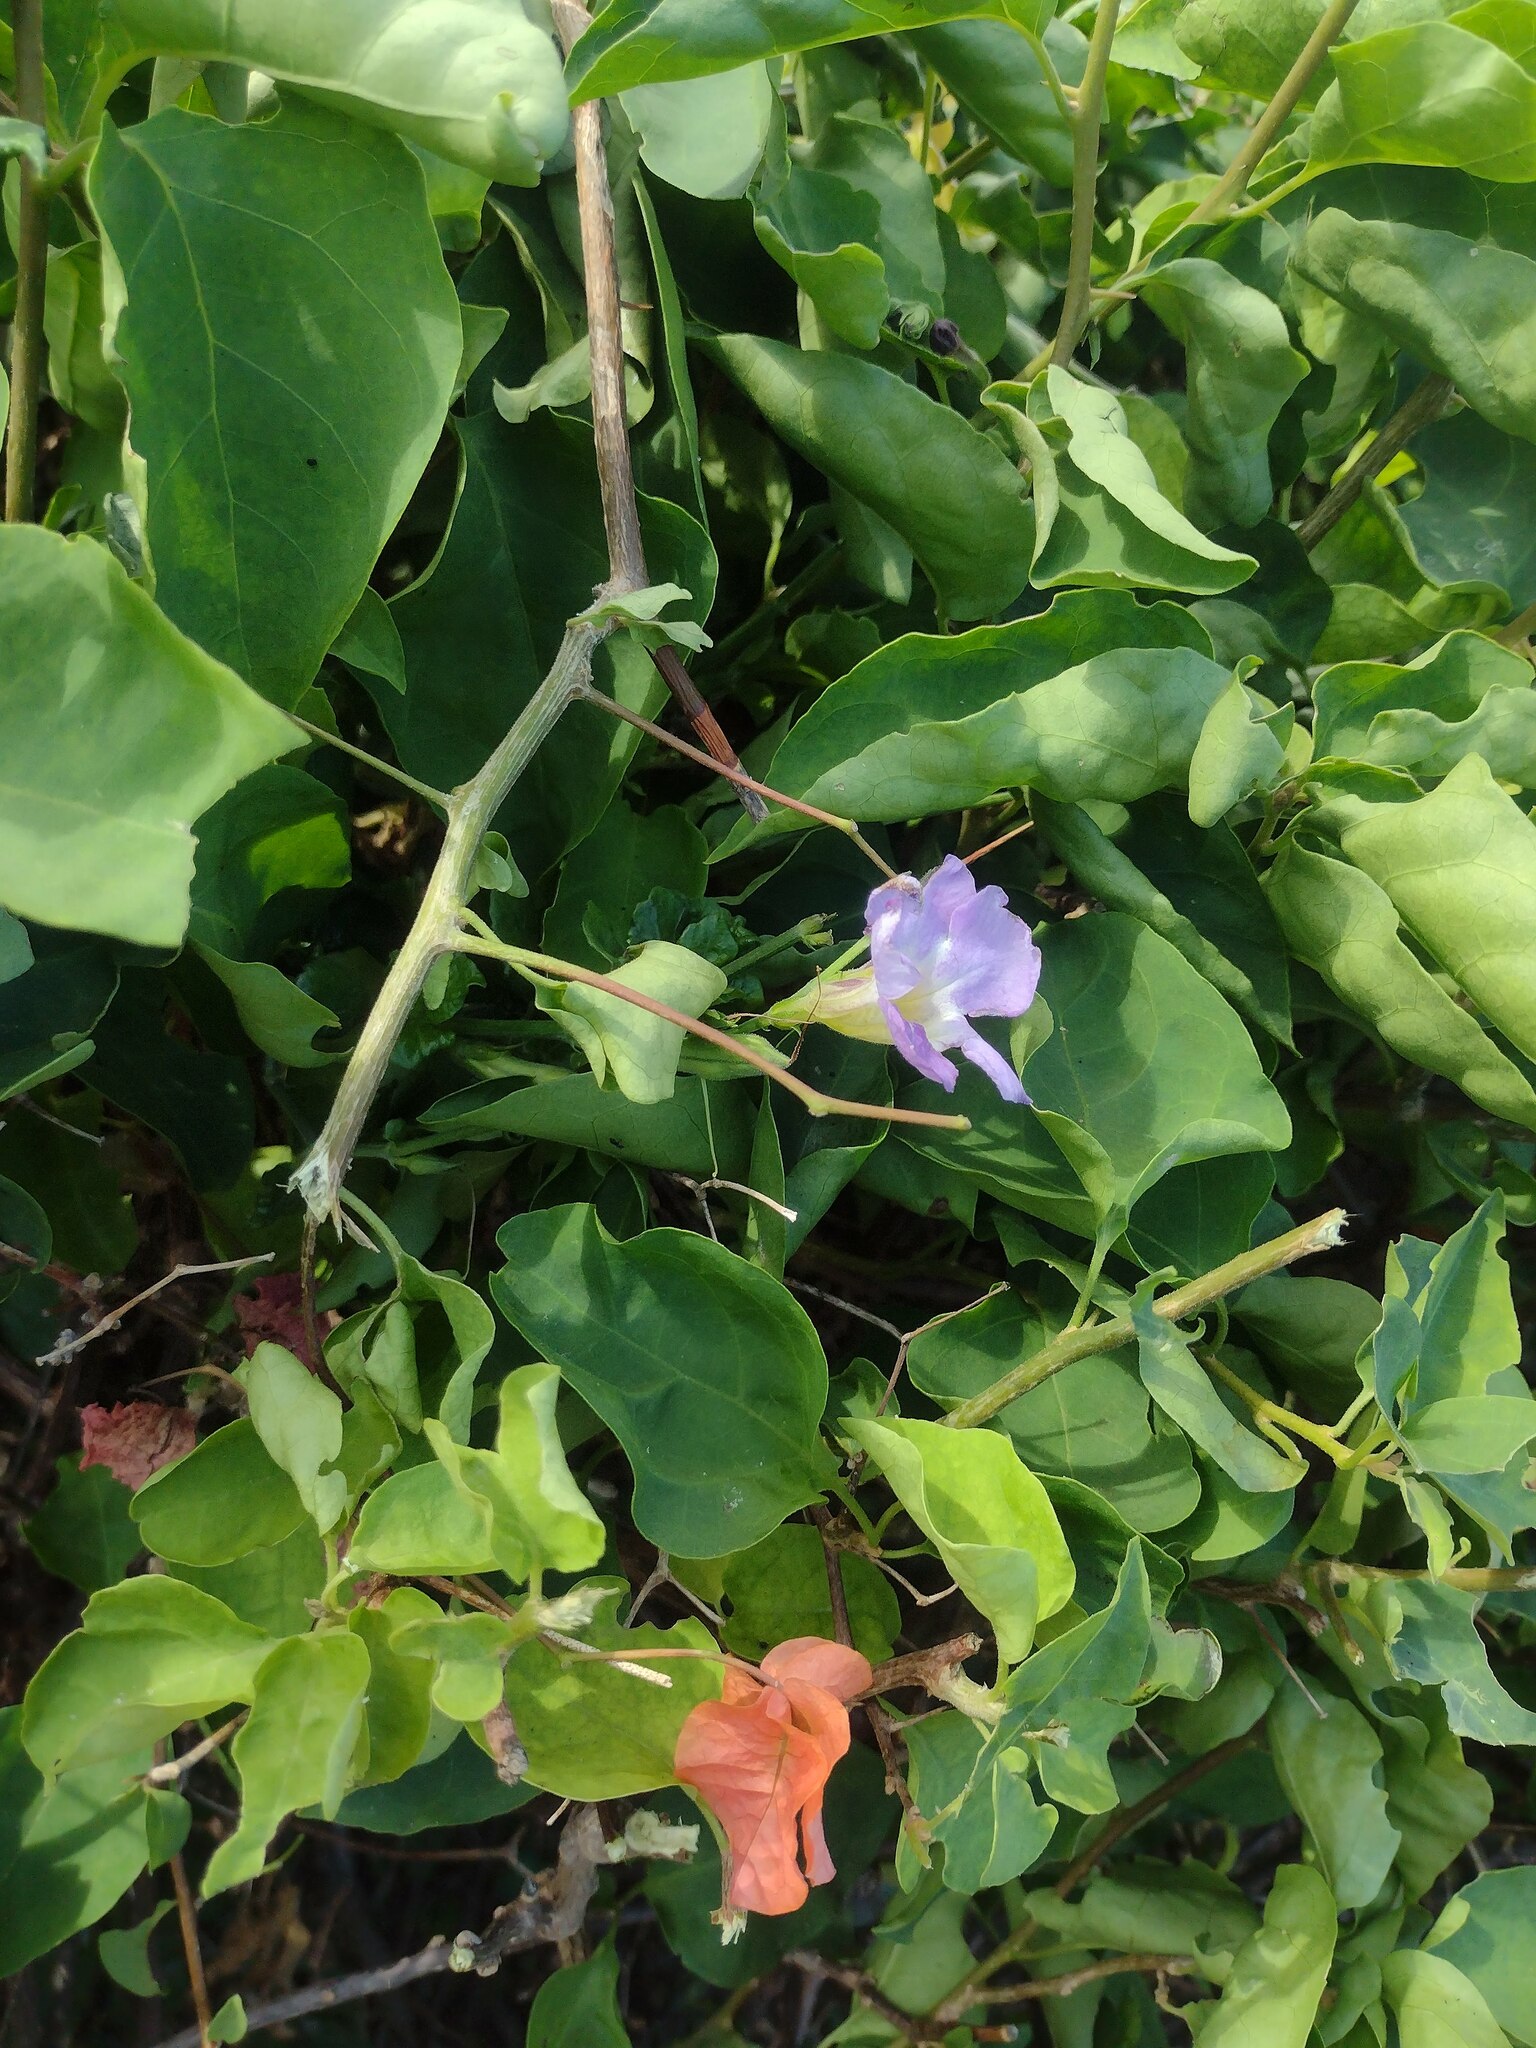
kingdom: Plantae
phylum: Tracheophyta
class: Magnoliopsida
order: Lamiales
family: Acanthaceae
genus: Asystasia
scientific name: Asystasia gangetica
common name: Chinese violet
